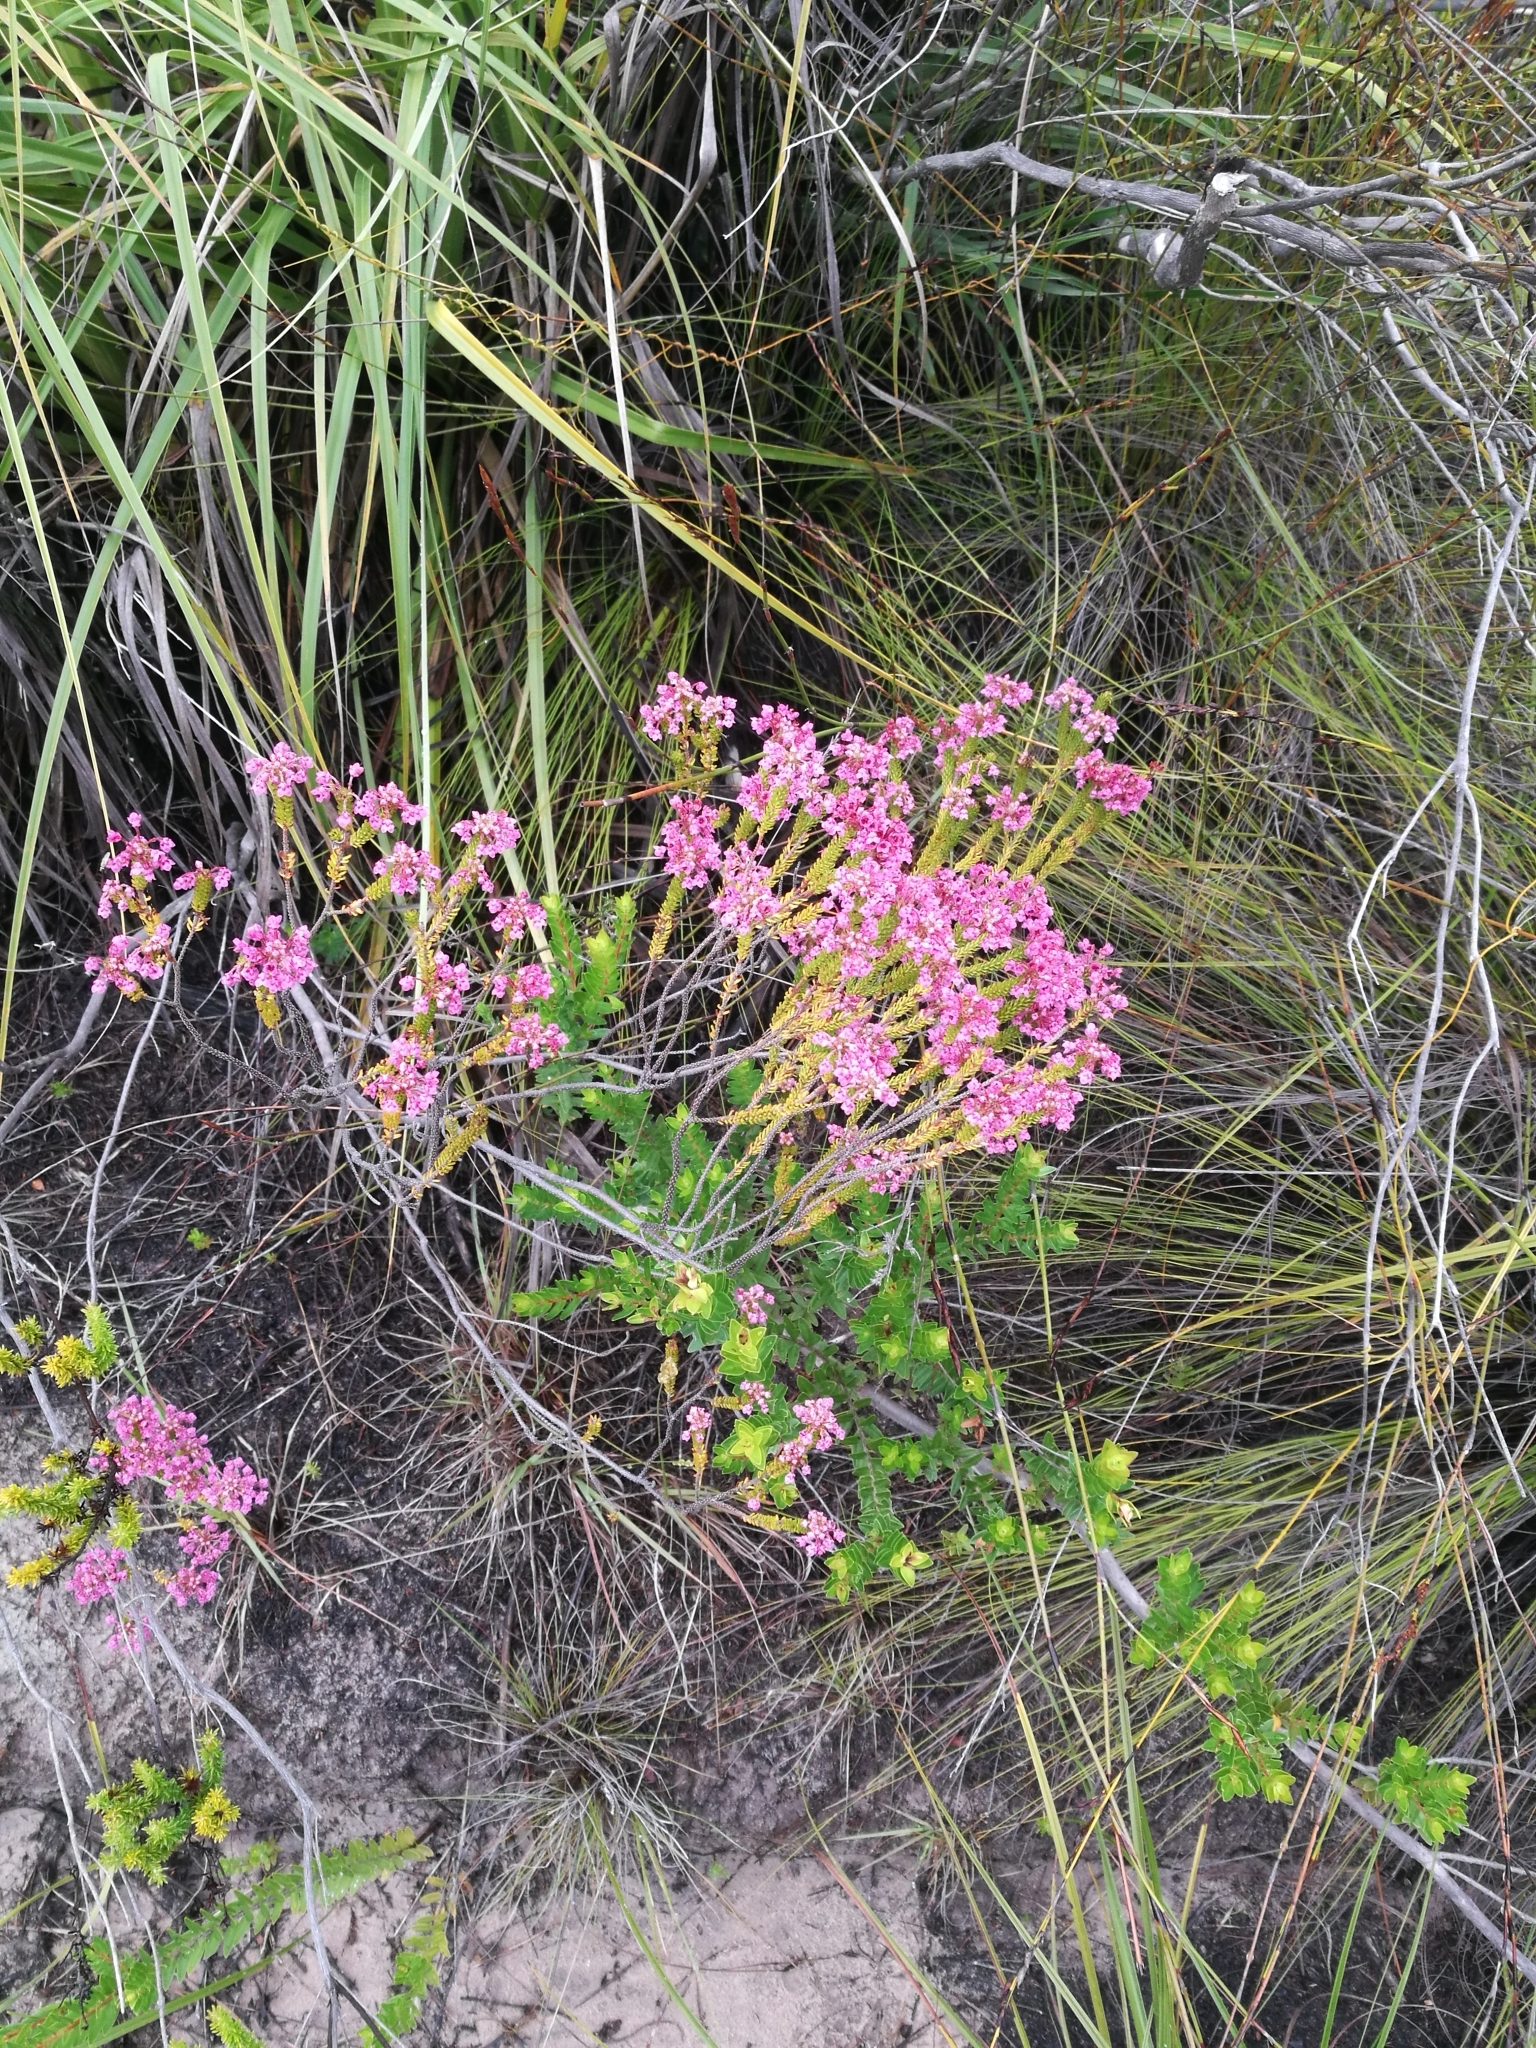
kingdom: Plantae
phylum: Tracheophyta
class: Magnoliopsida
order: Ericales
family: Ericaceae
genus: Erica
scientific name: Erica seriphiifolia
